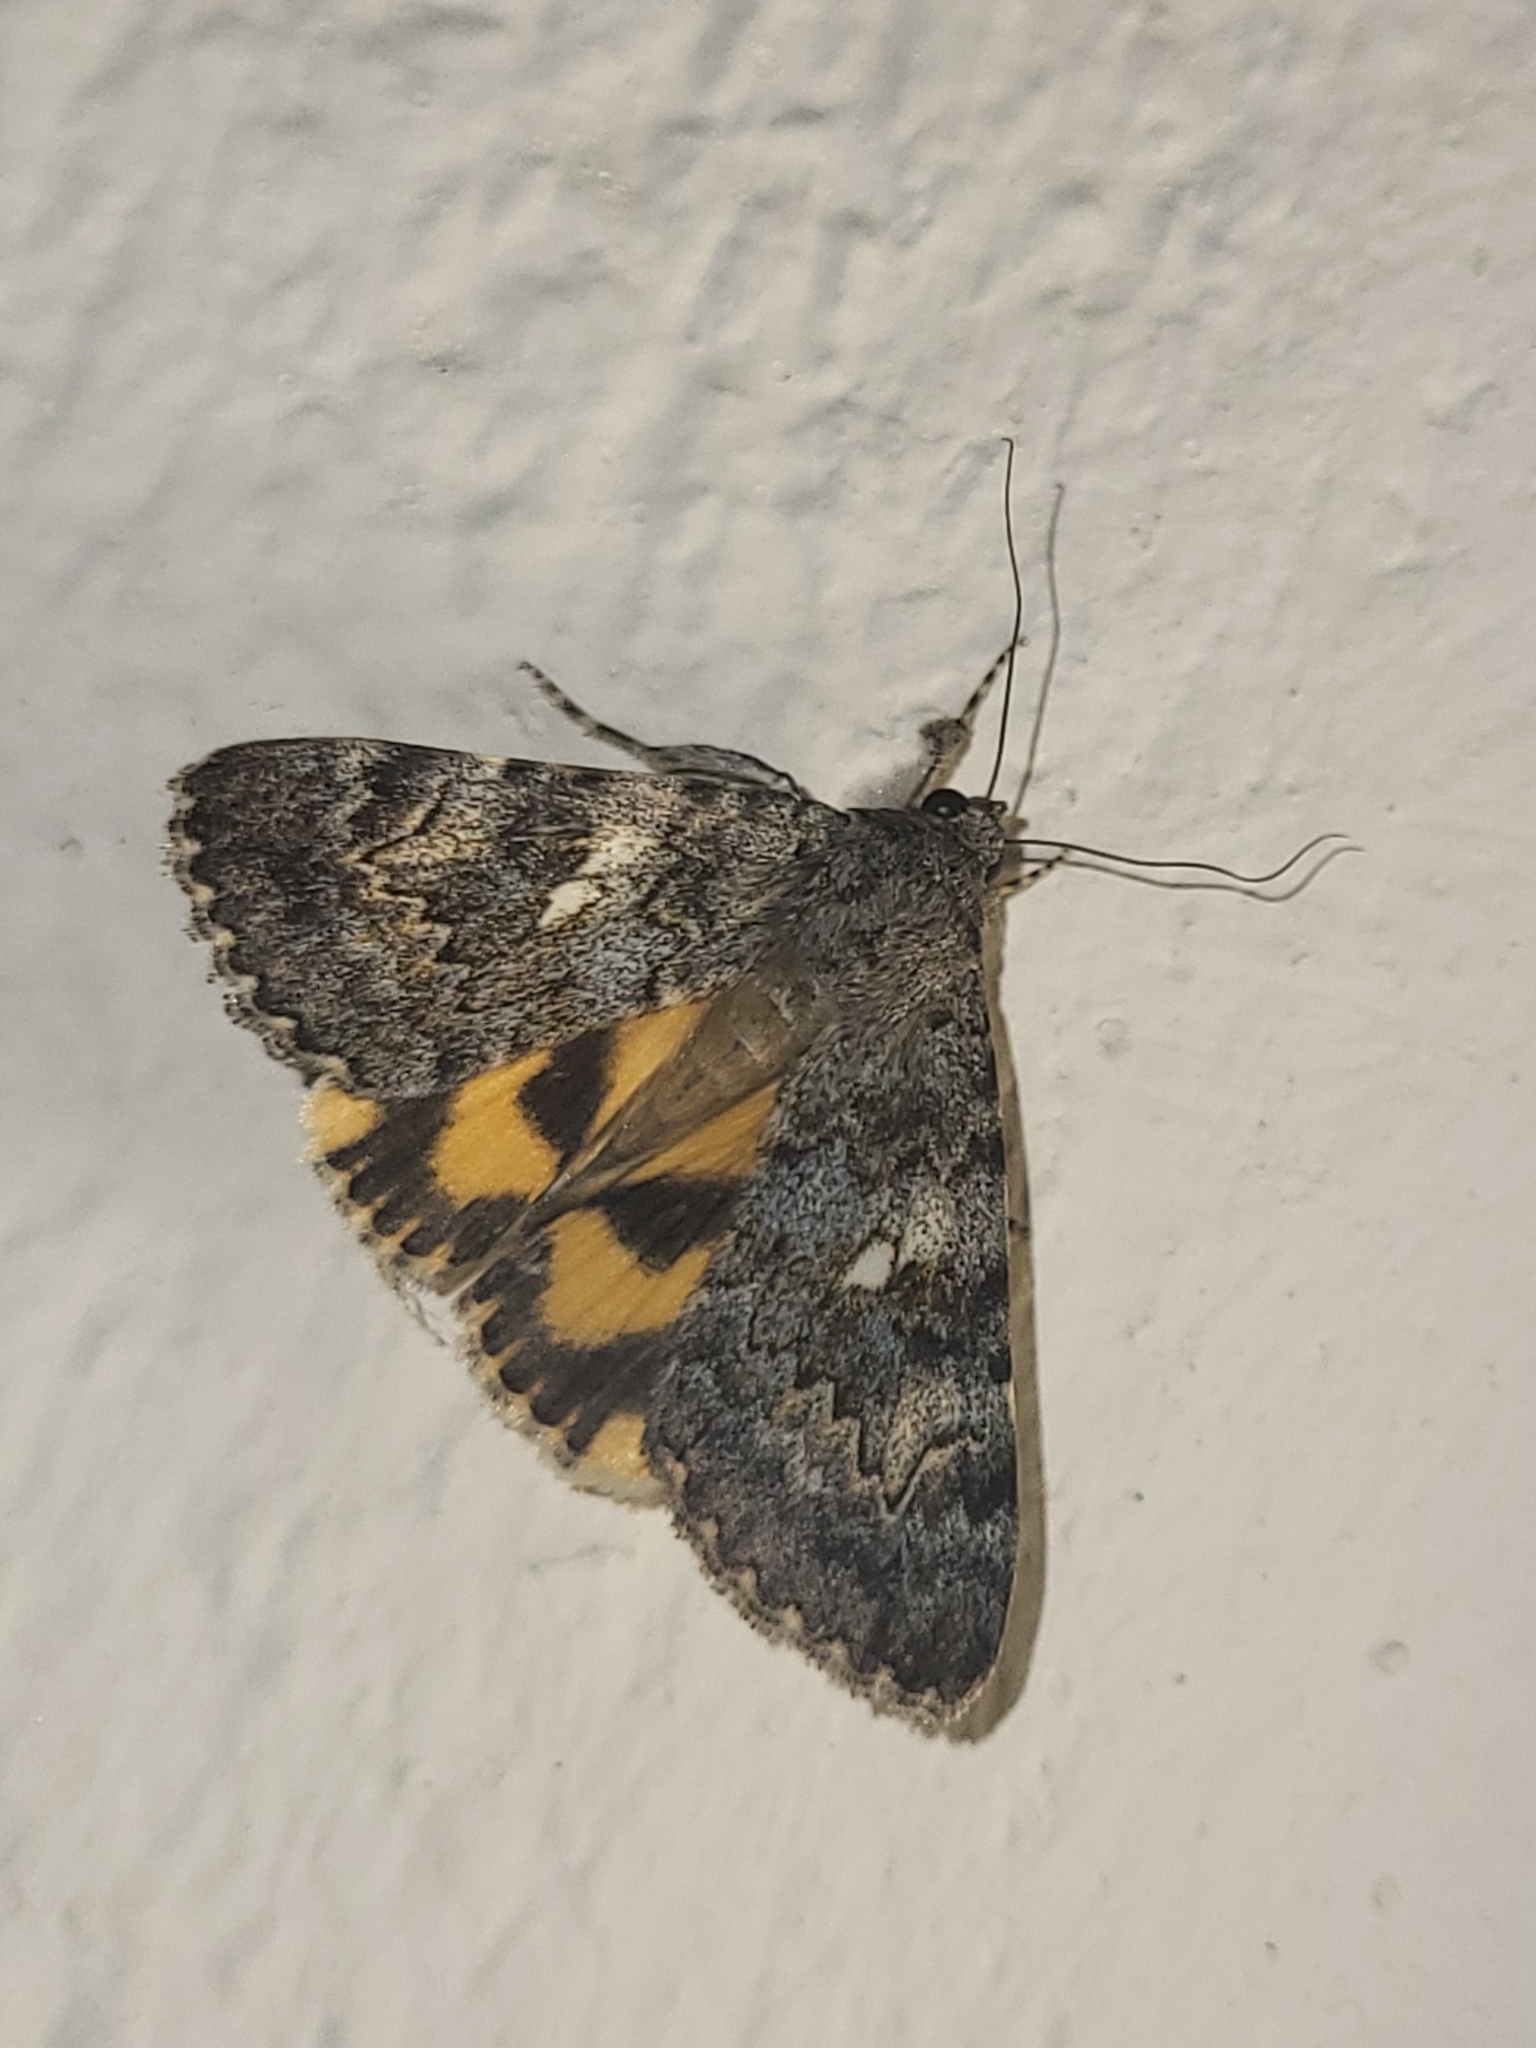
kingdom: Animalia
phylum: Arthropoda
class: Insecta
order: Lepidoptera
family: Erebidae
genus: Catocala
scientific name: Catocala nymphaea
